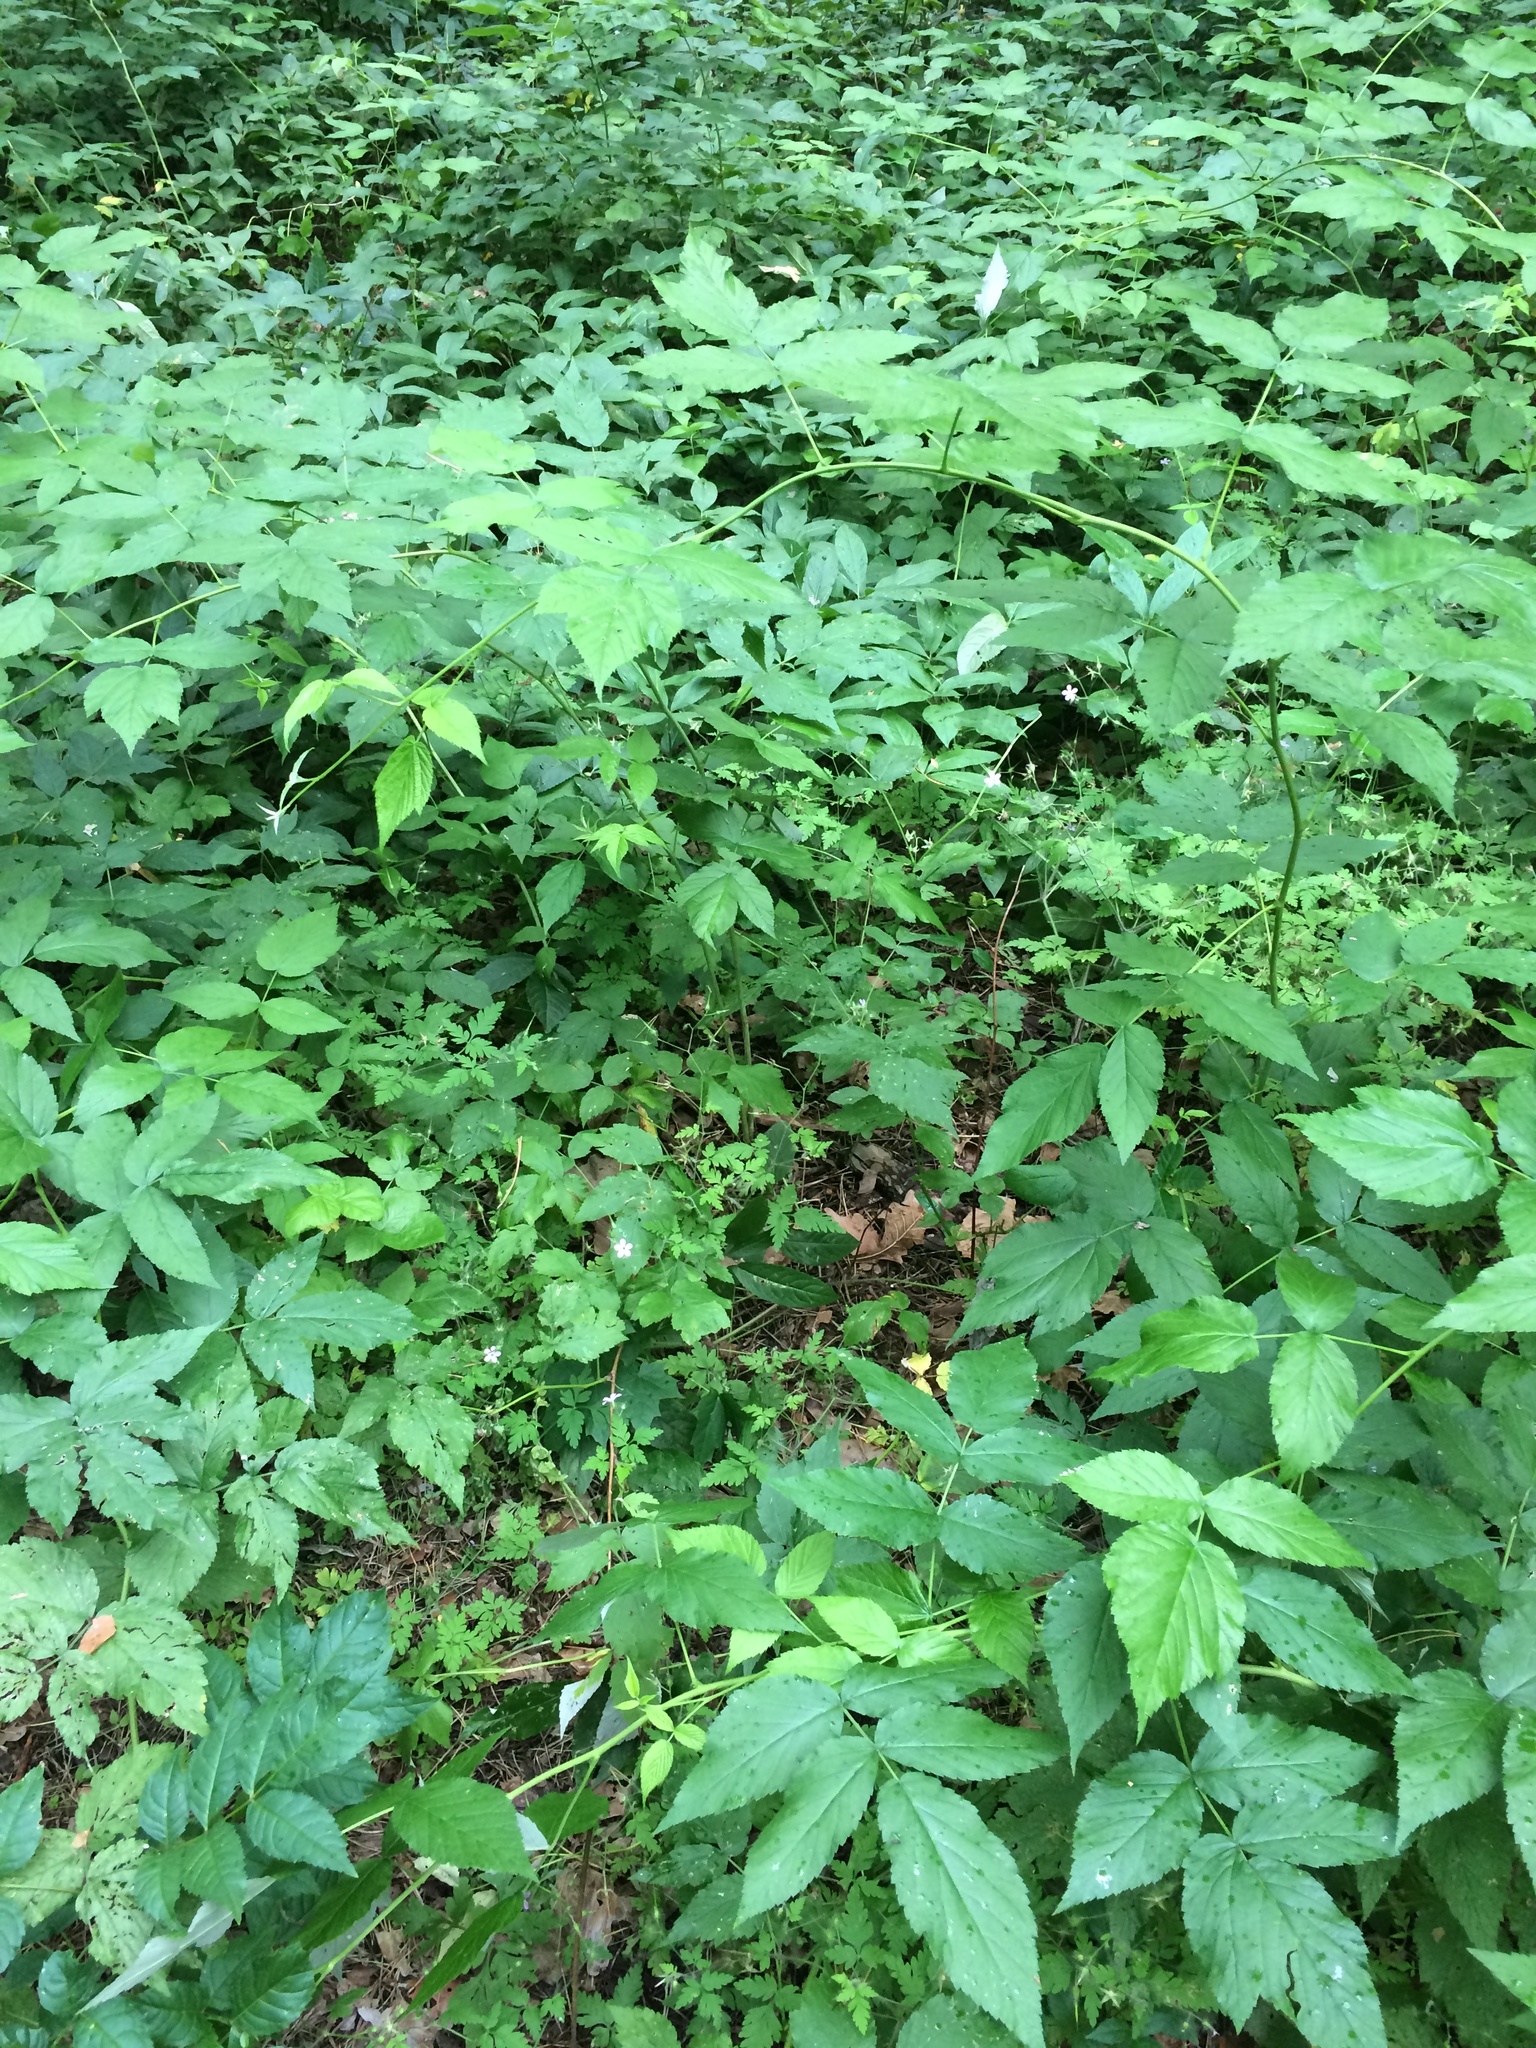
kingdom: Plantae
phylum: Tracheophyta
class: Magnoliopsida
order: Apiales
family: Apiaceae
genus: Aegopodium
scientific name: Aegopodium podagraria
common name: Ground-elder
